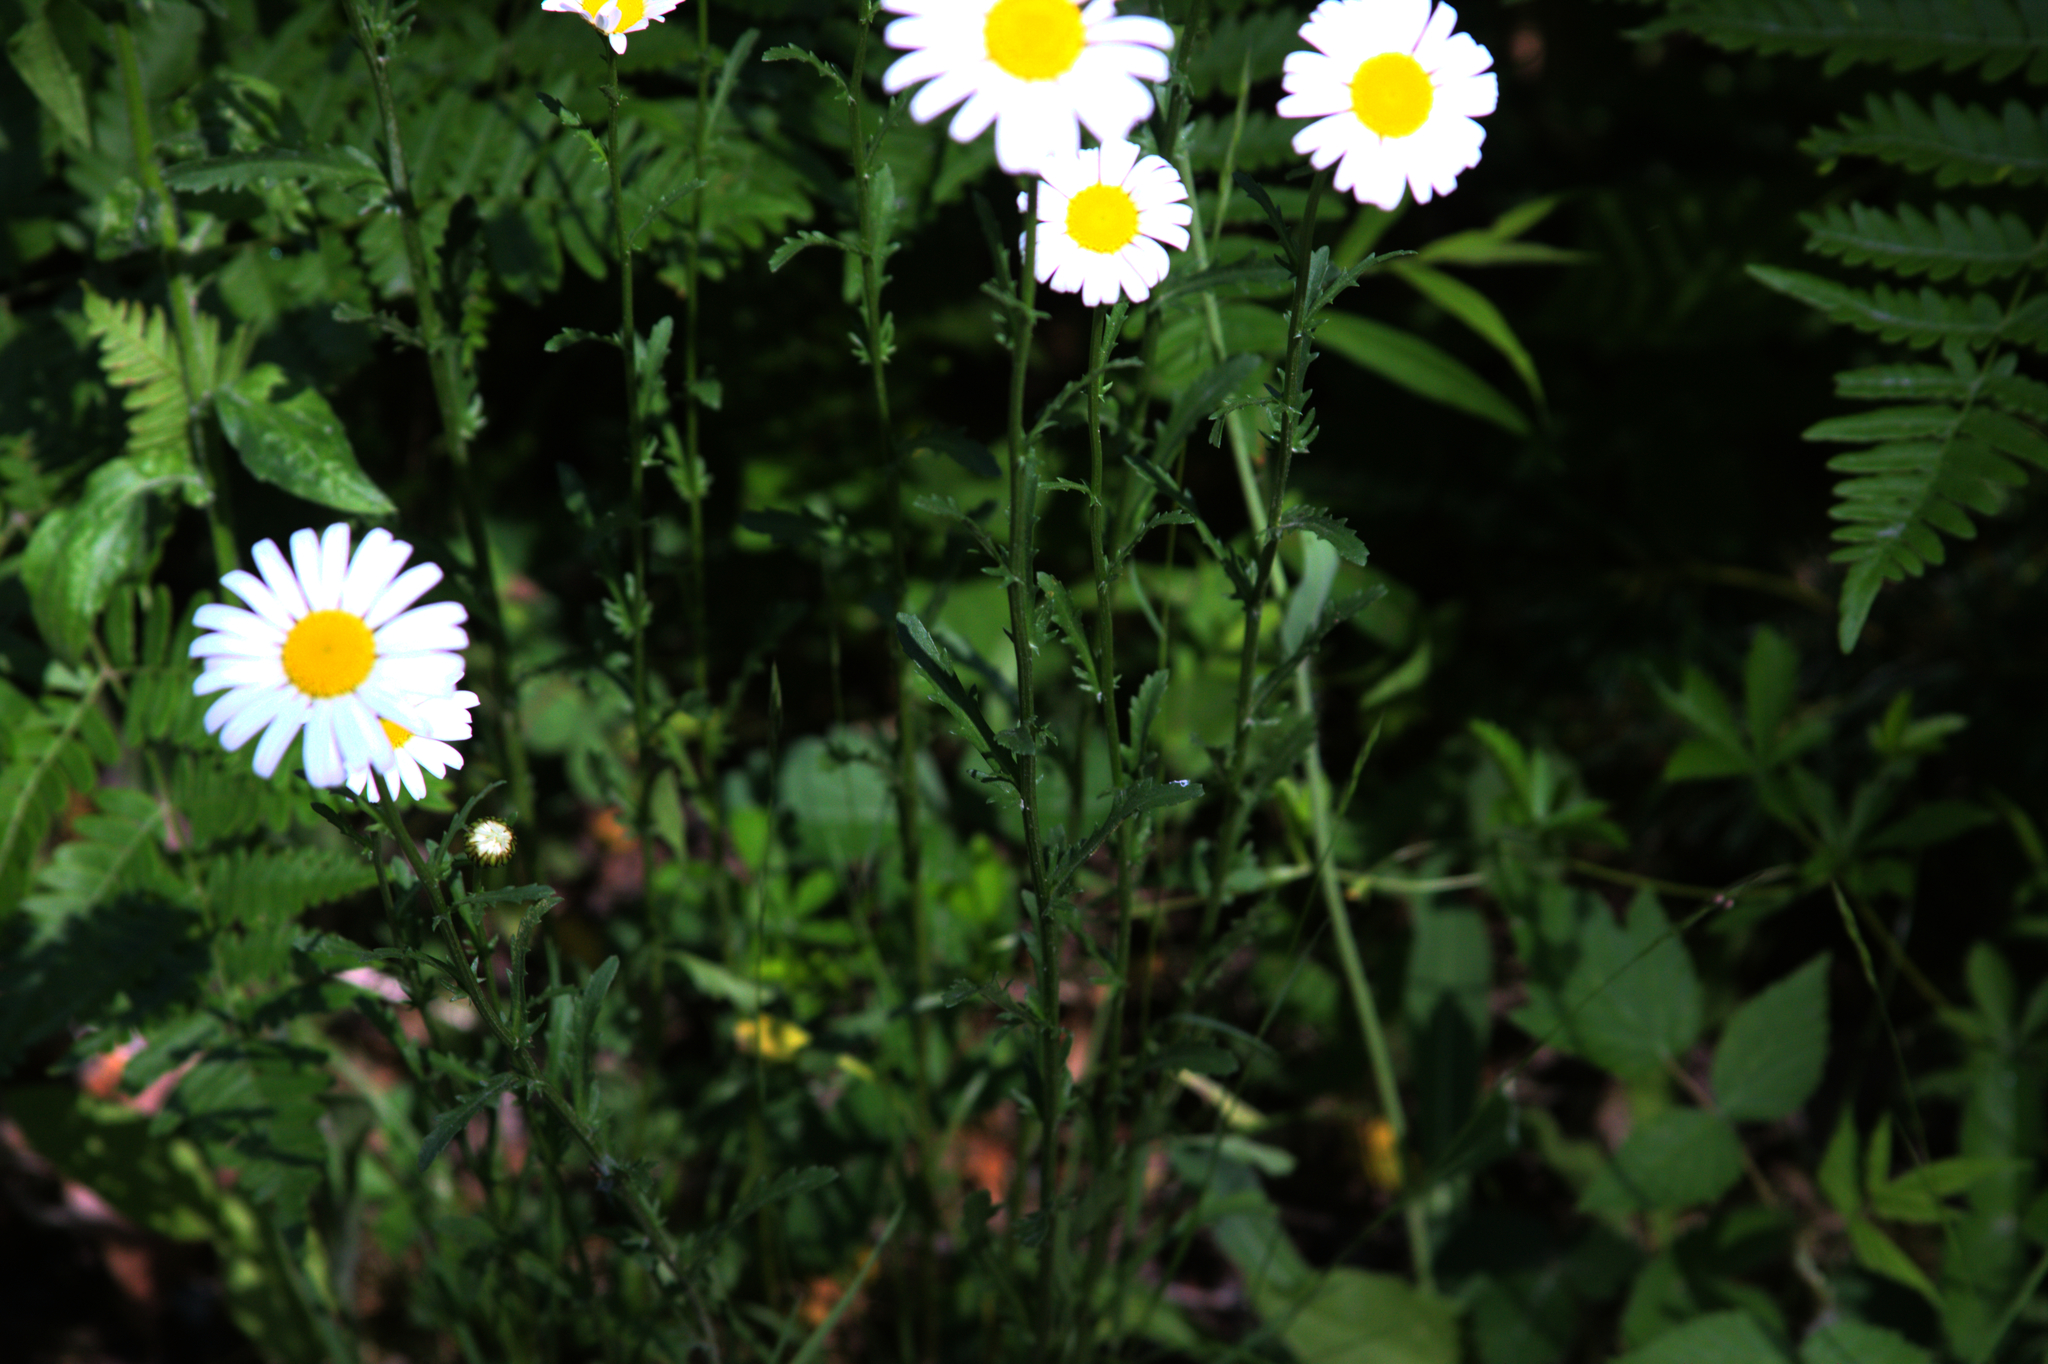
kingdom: Plantae
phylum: Tracheophyta
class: Magnoliopsida
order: Asterales
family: Asteraceae
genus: Leucanthemum
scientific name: Leucanthemum vulgare
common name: Oxeye daisy
